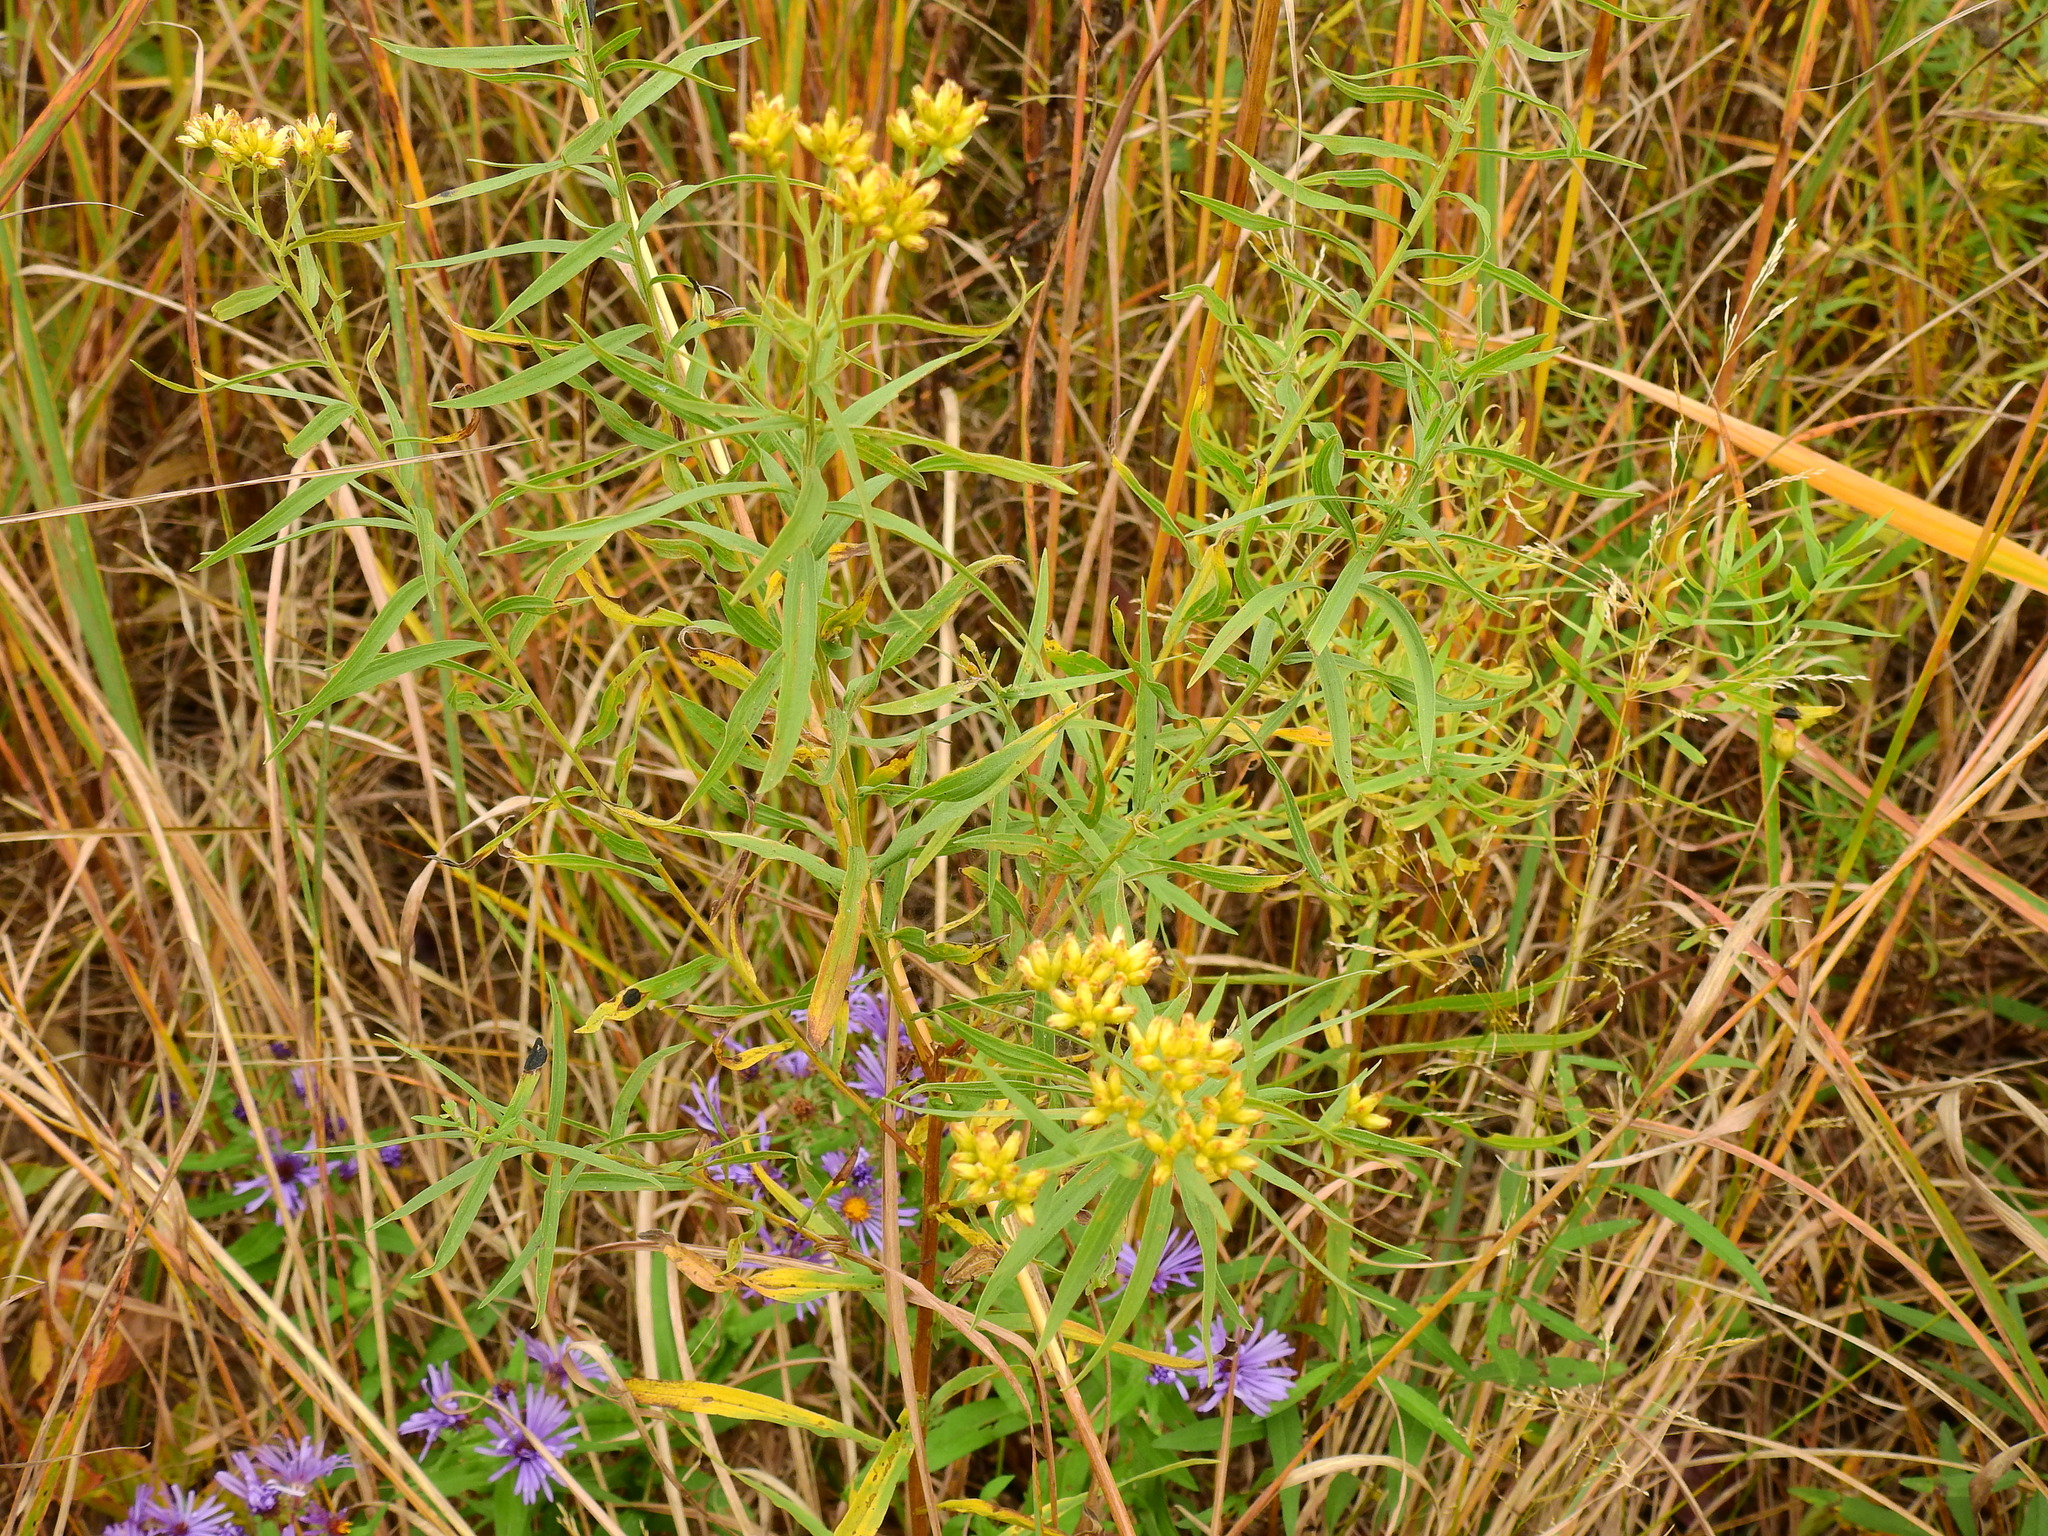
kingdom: Plantae
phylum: Tracheophyta
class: Magnoliopsida
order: Asterales
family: Asteraceae
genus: Euthamia
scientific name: Euthamia graminifolia
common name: Common goldentop
